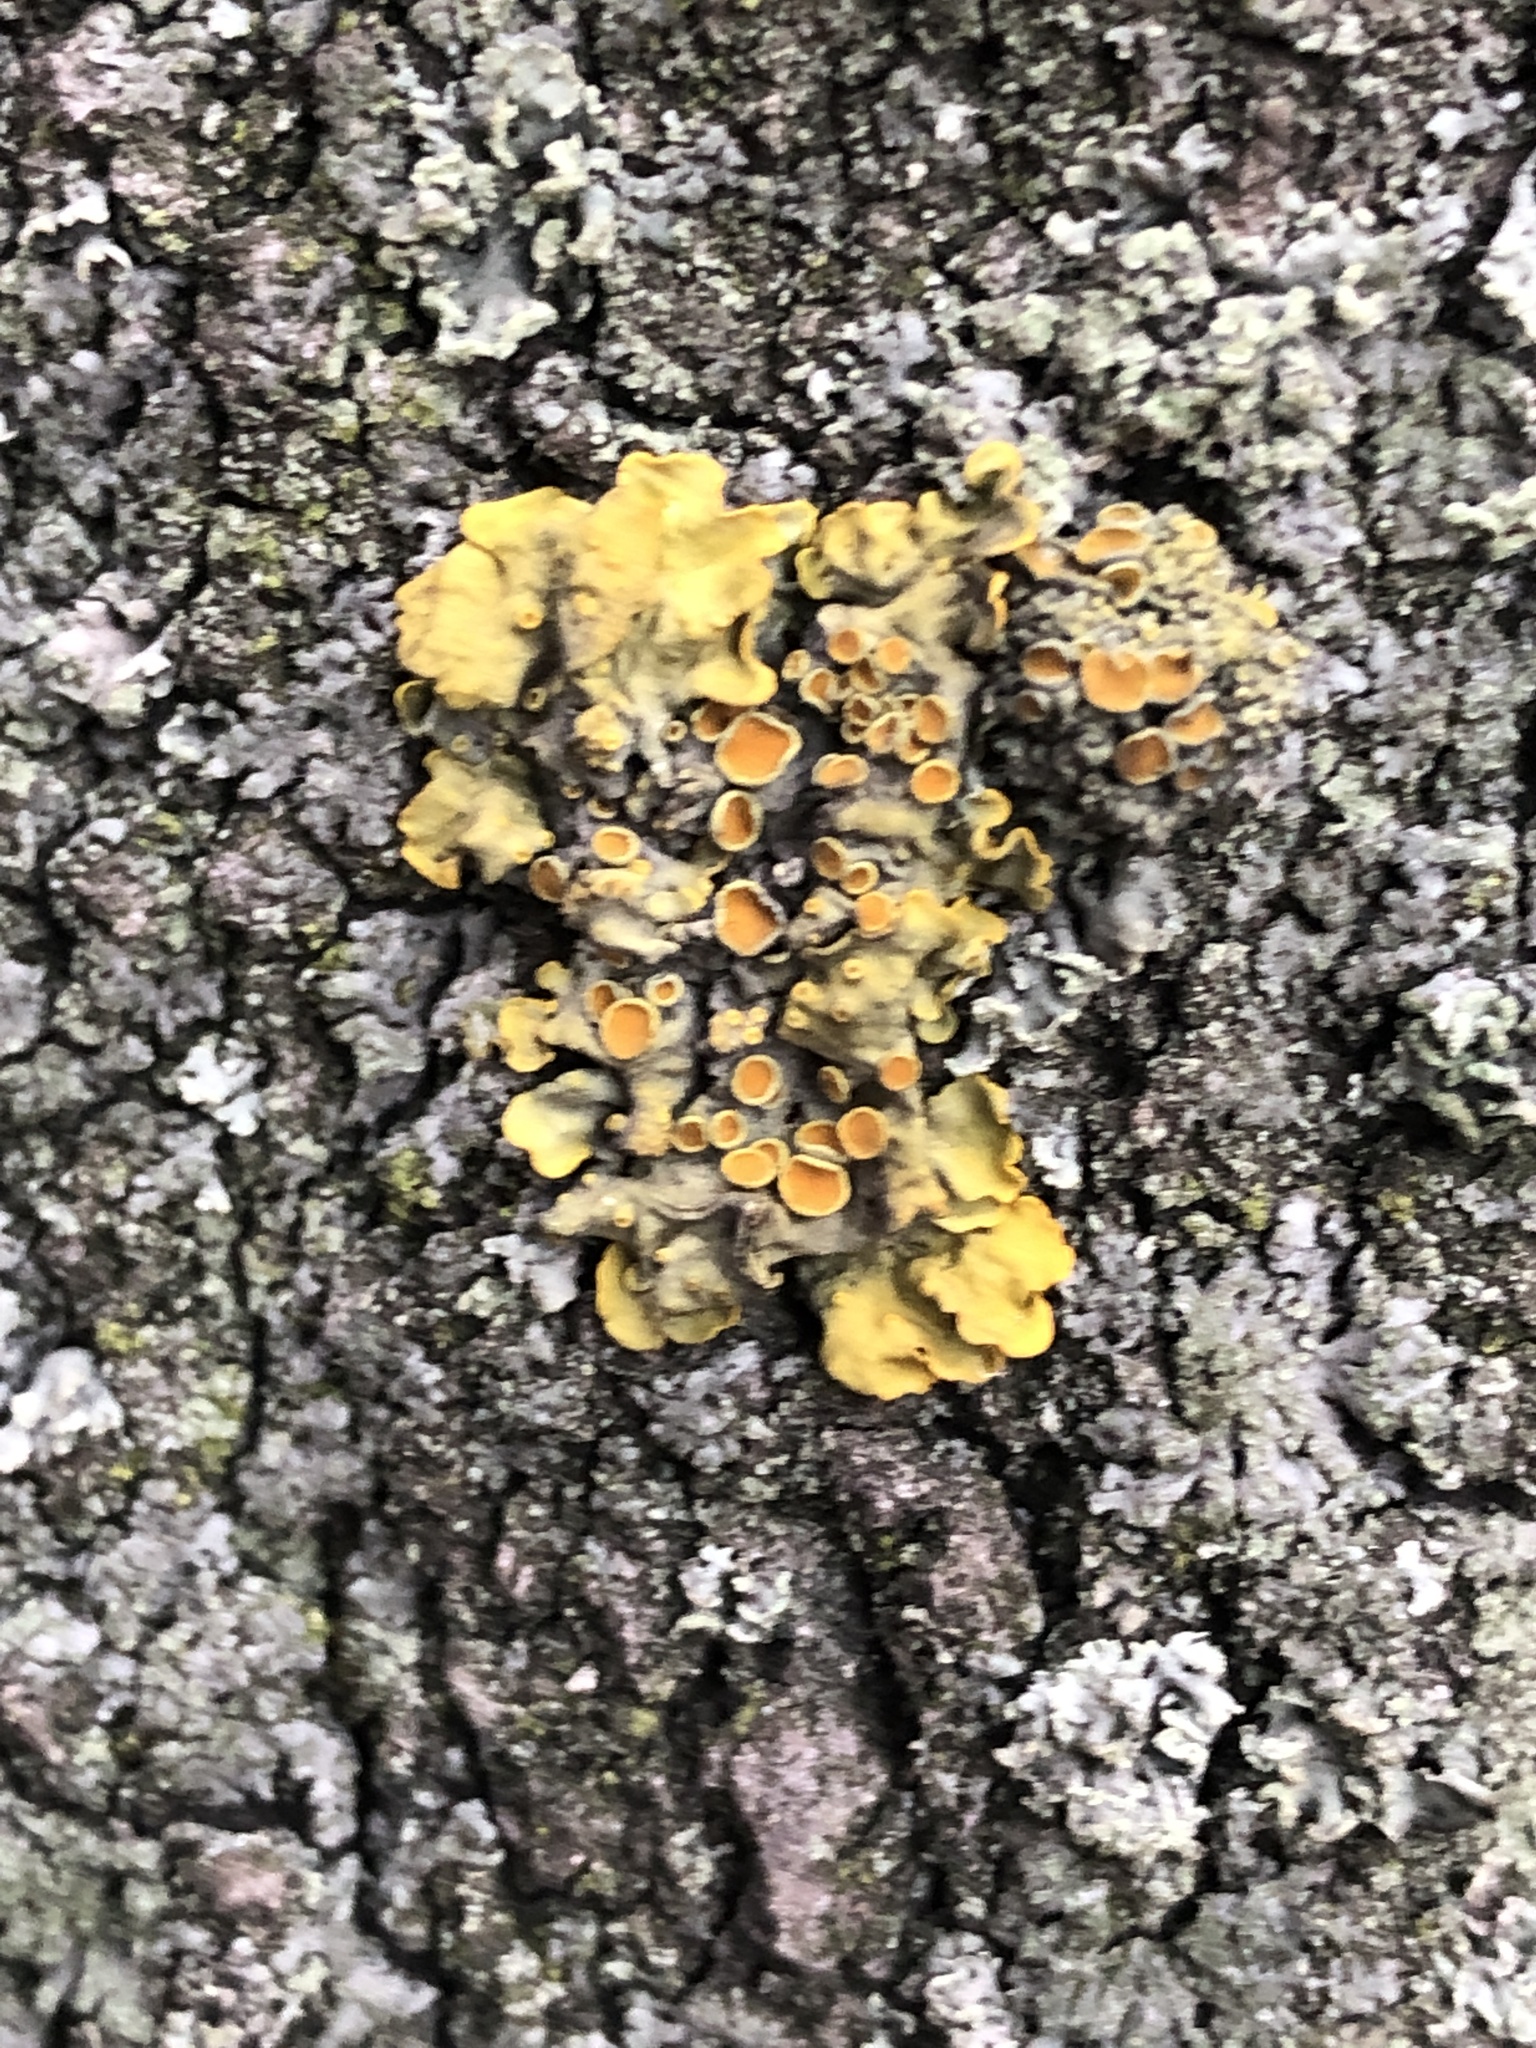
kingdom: Fungi
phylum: Ascomycota
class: Lecanoromycetes
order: Teloschistales
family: Teloschistaceae
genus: Xanthoria
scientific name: Xanthoria parietina
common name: Common orange lichen
